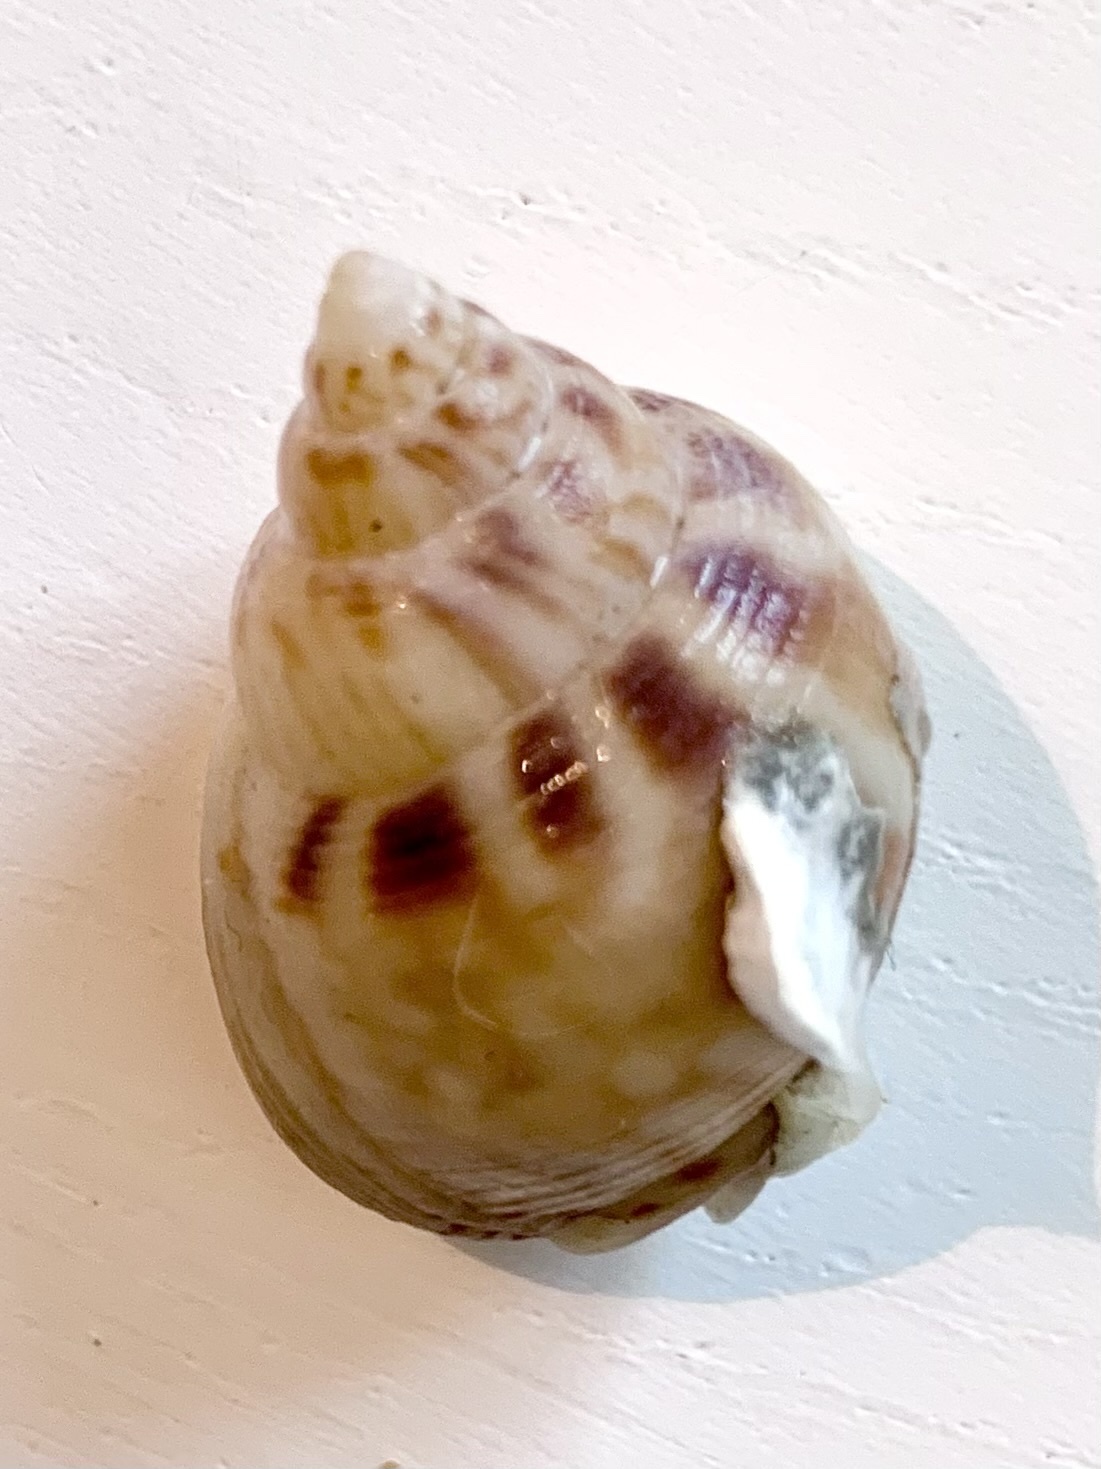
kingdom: Animalia
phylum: Mollusca
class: Gastropoda
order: Neogastropoda
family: Nassariidae
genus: Tritia
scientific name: Tritia mutabilis
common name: Mutable nassa
